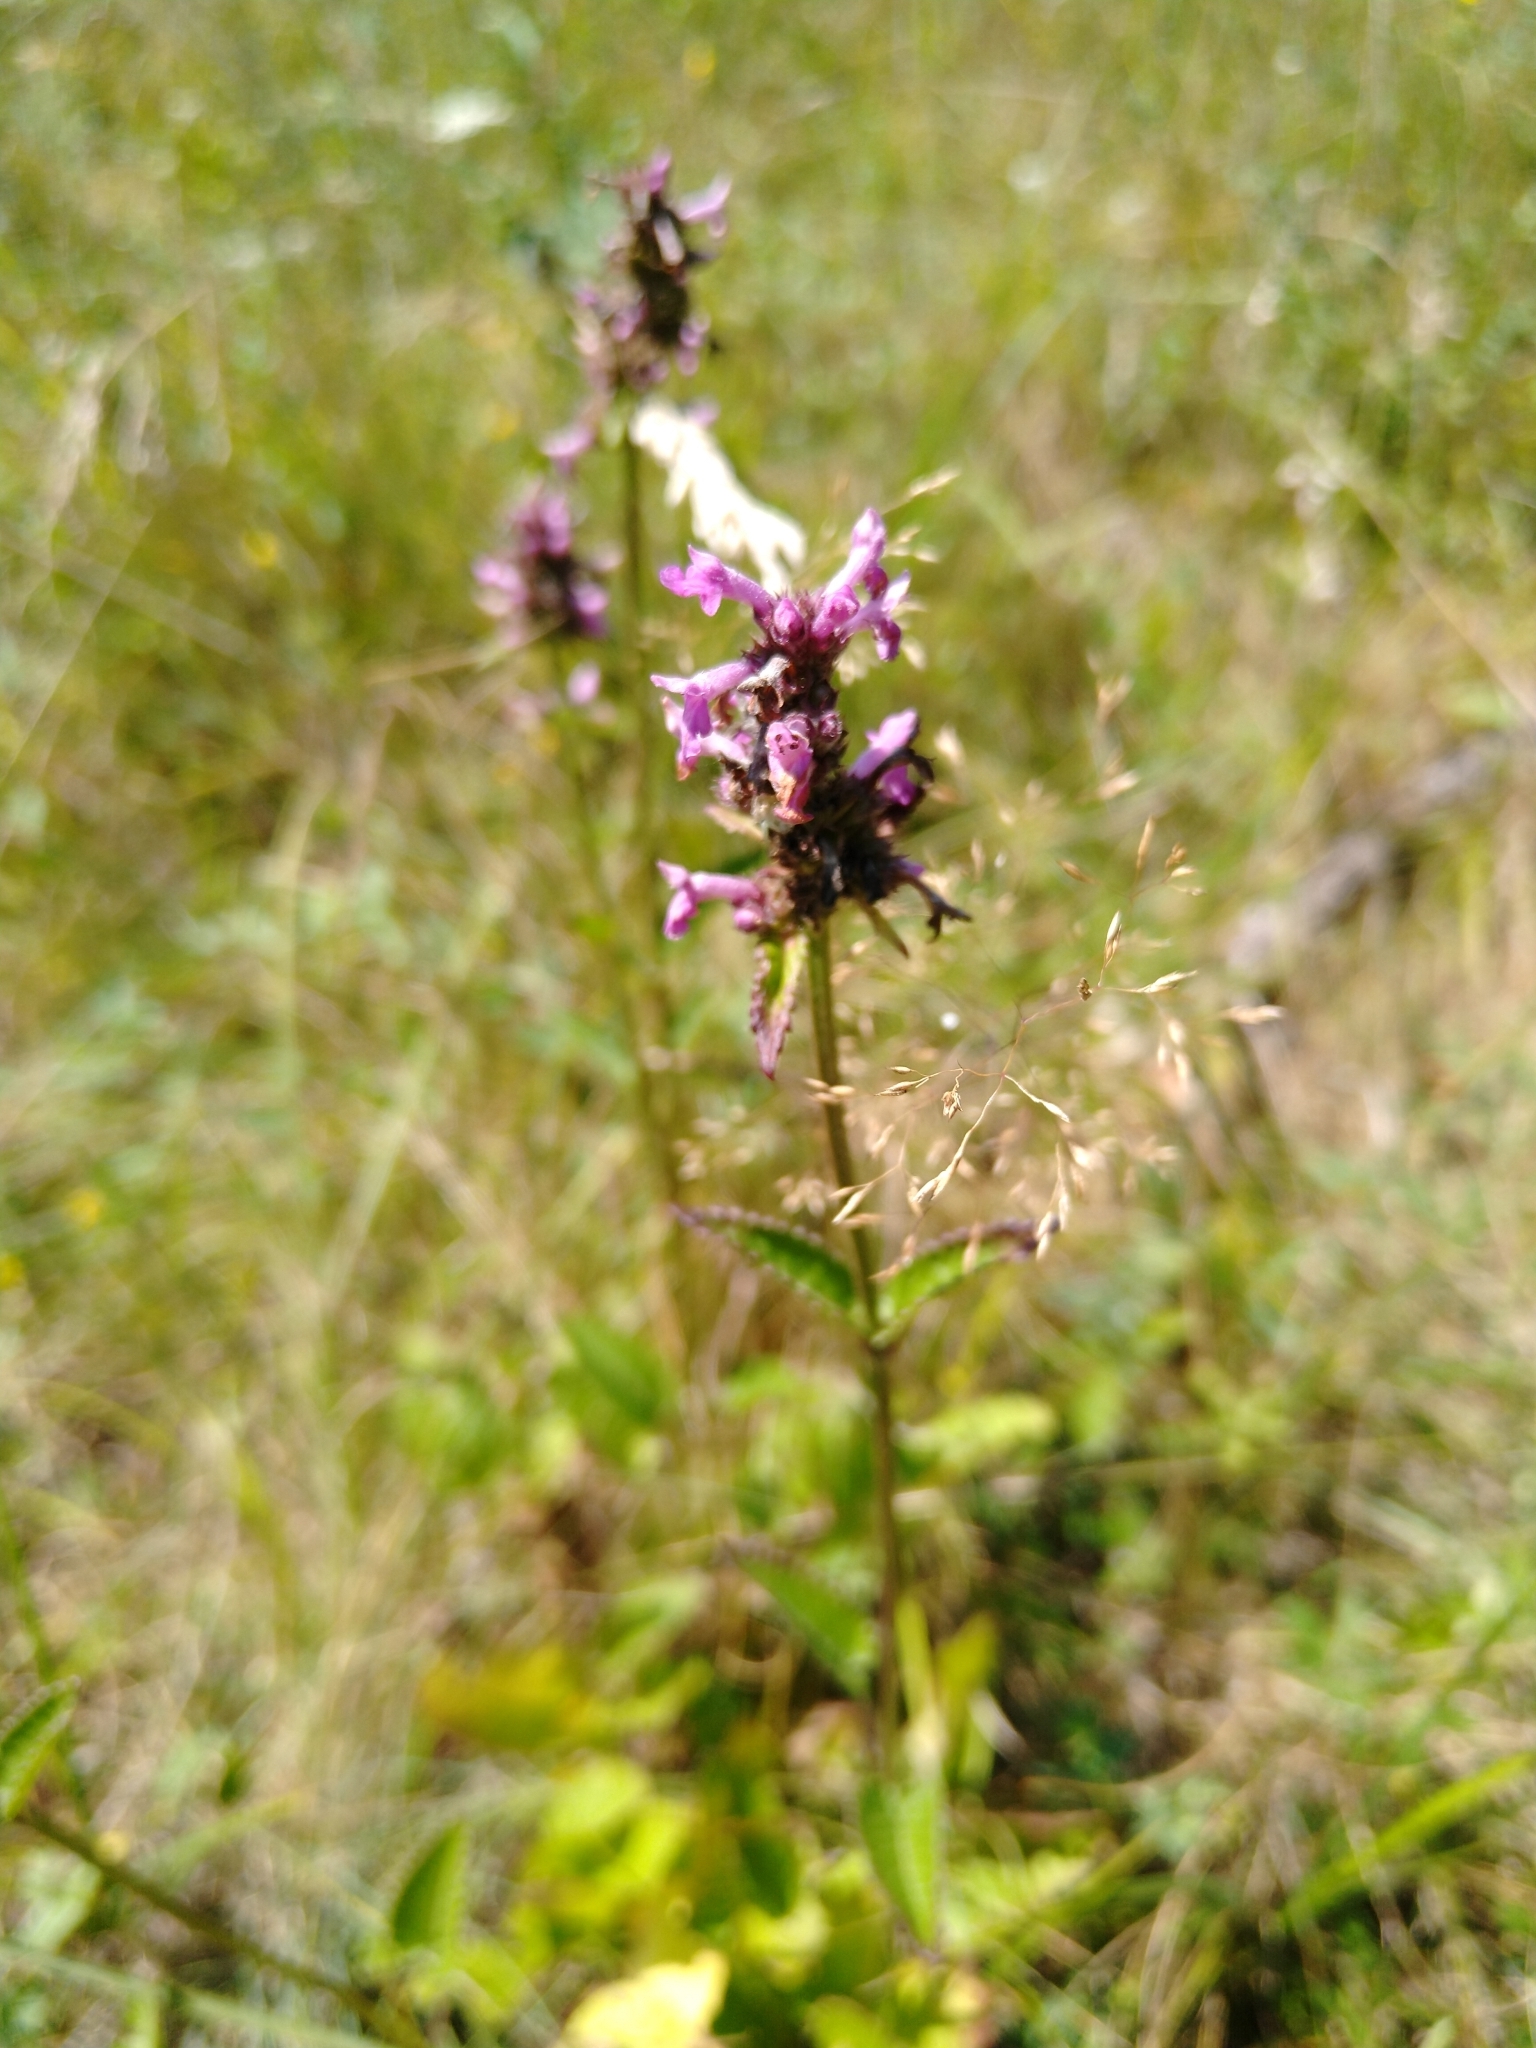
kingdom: Plantae
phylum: Tracheophyta
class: Magnoliopsida
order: Lamiales
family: Lamiaceae
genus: Betonica
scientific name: Betonica officinalis
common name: Bishop's-wort
